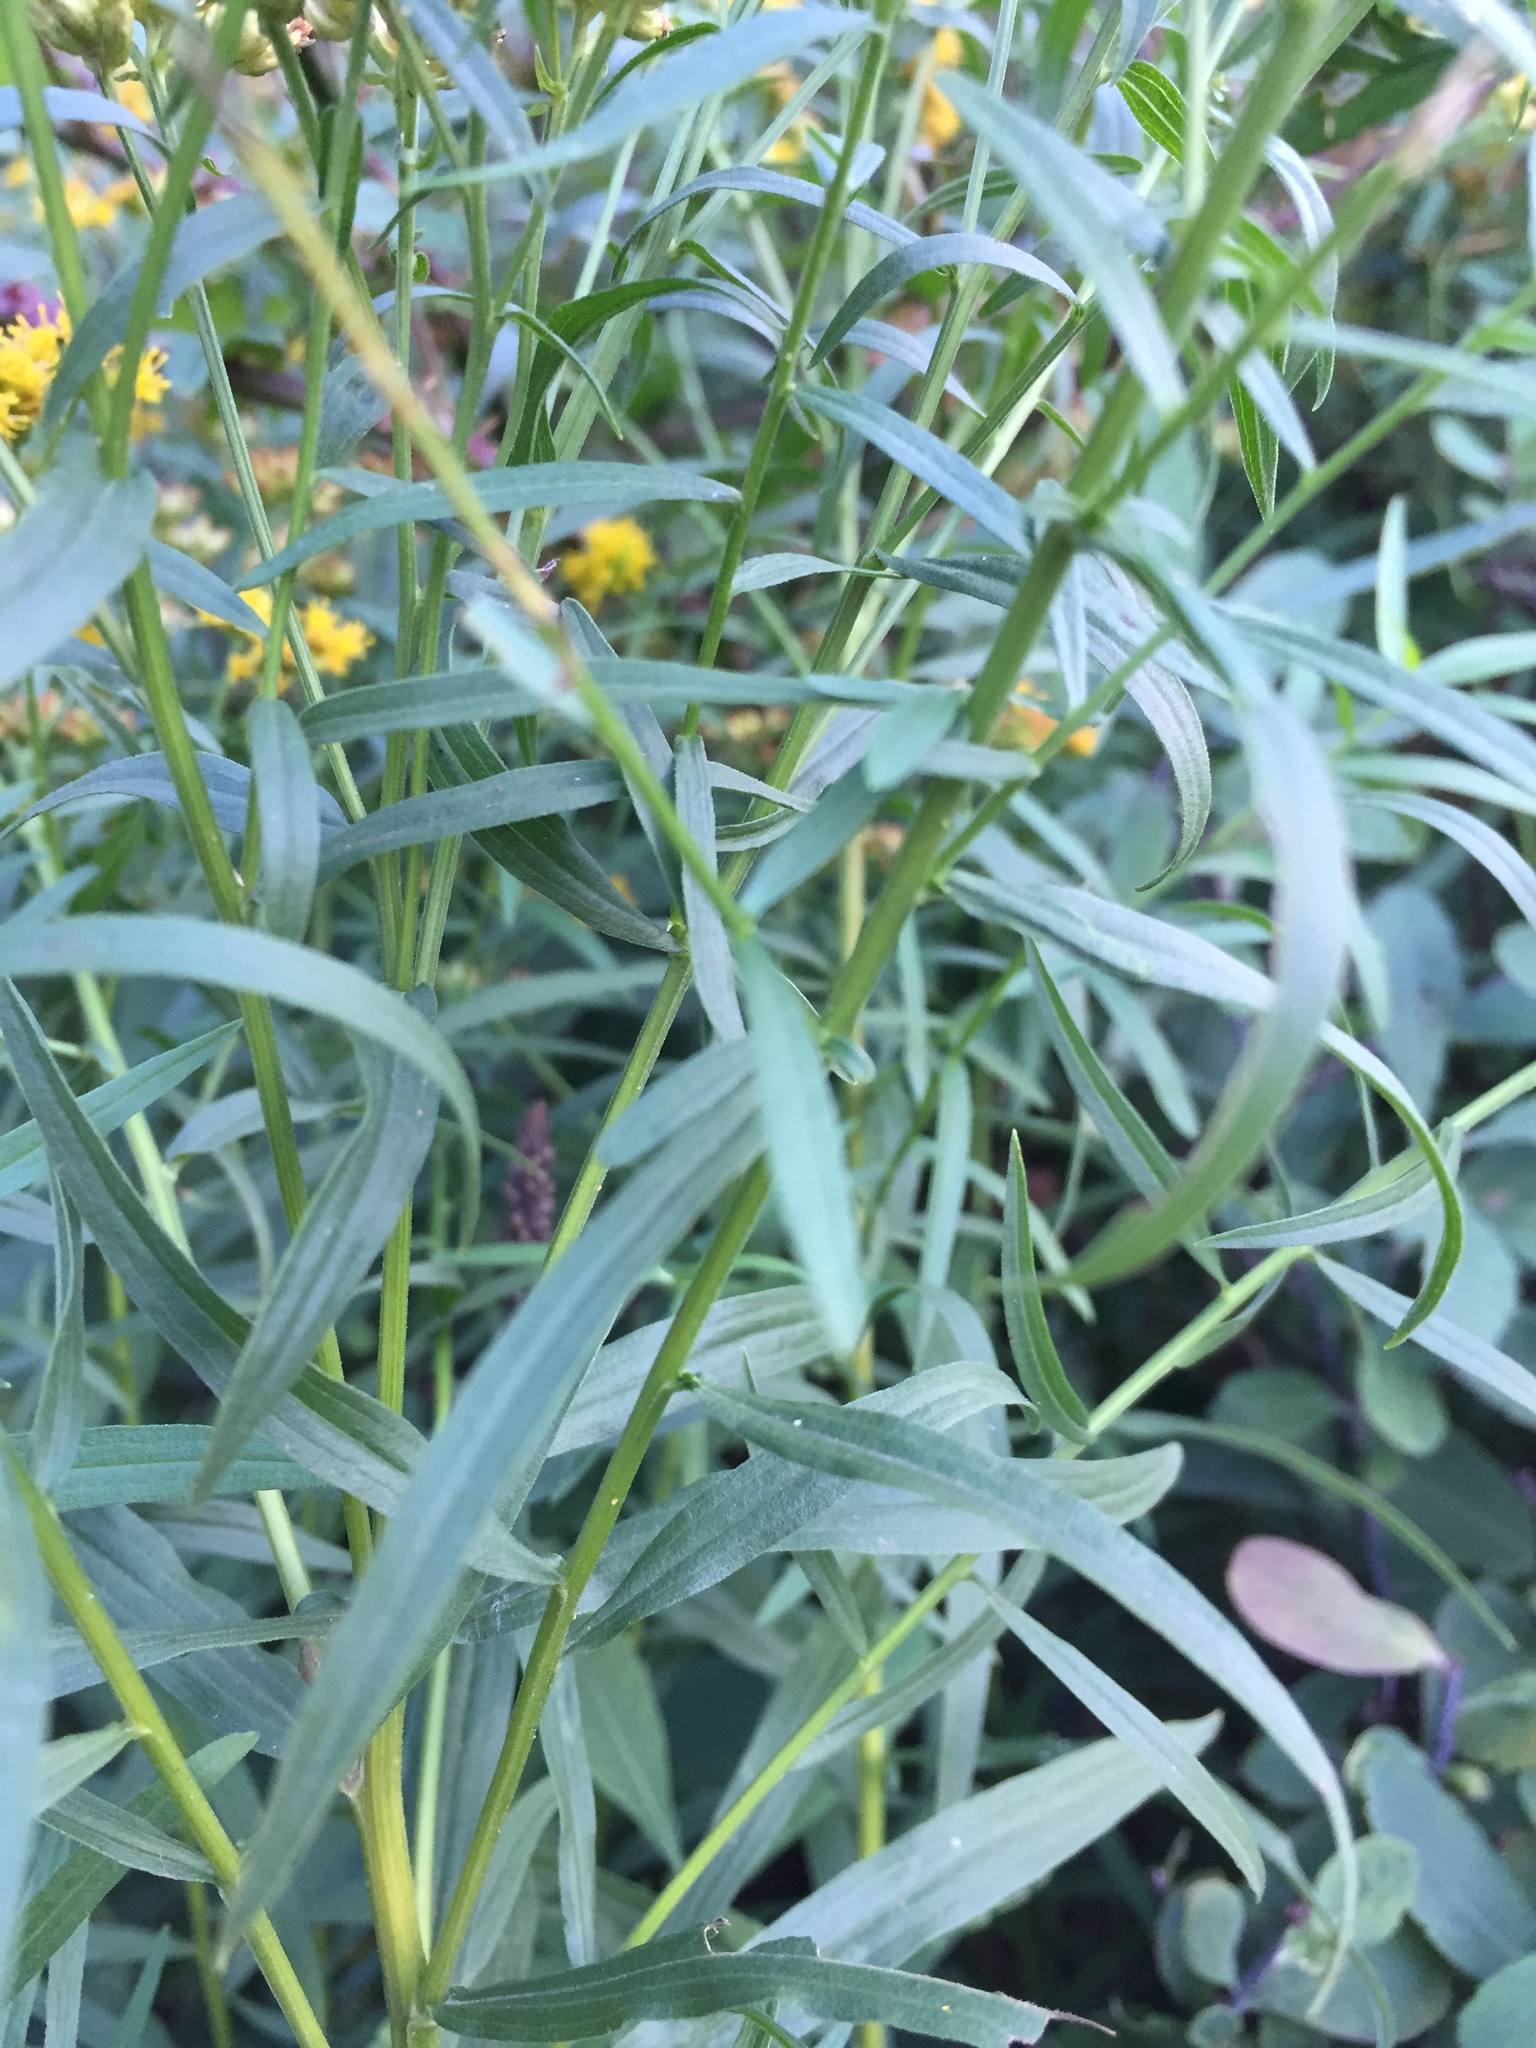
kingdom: Plantae
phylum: Tracheophyta
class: Magnoliopsida
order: Asterales
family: Asteraceae
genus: Euthamia
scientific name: Euthamia graminifolia
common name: Common goldentop
